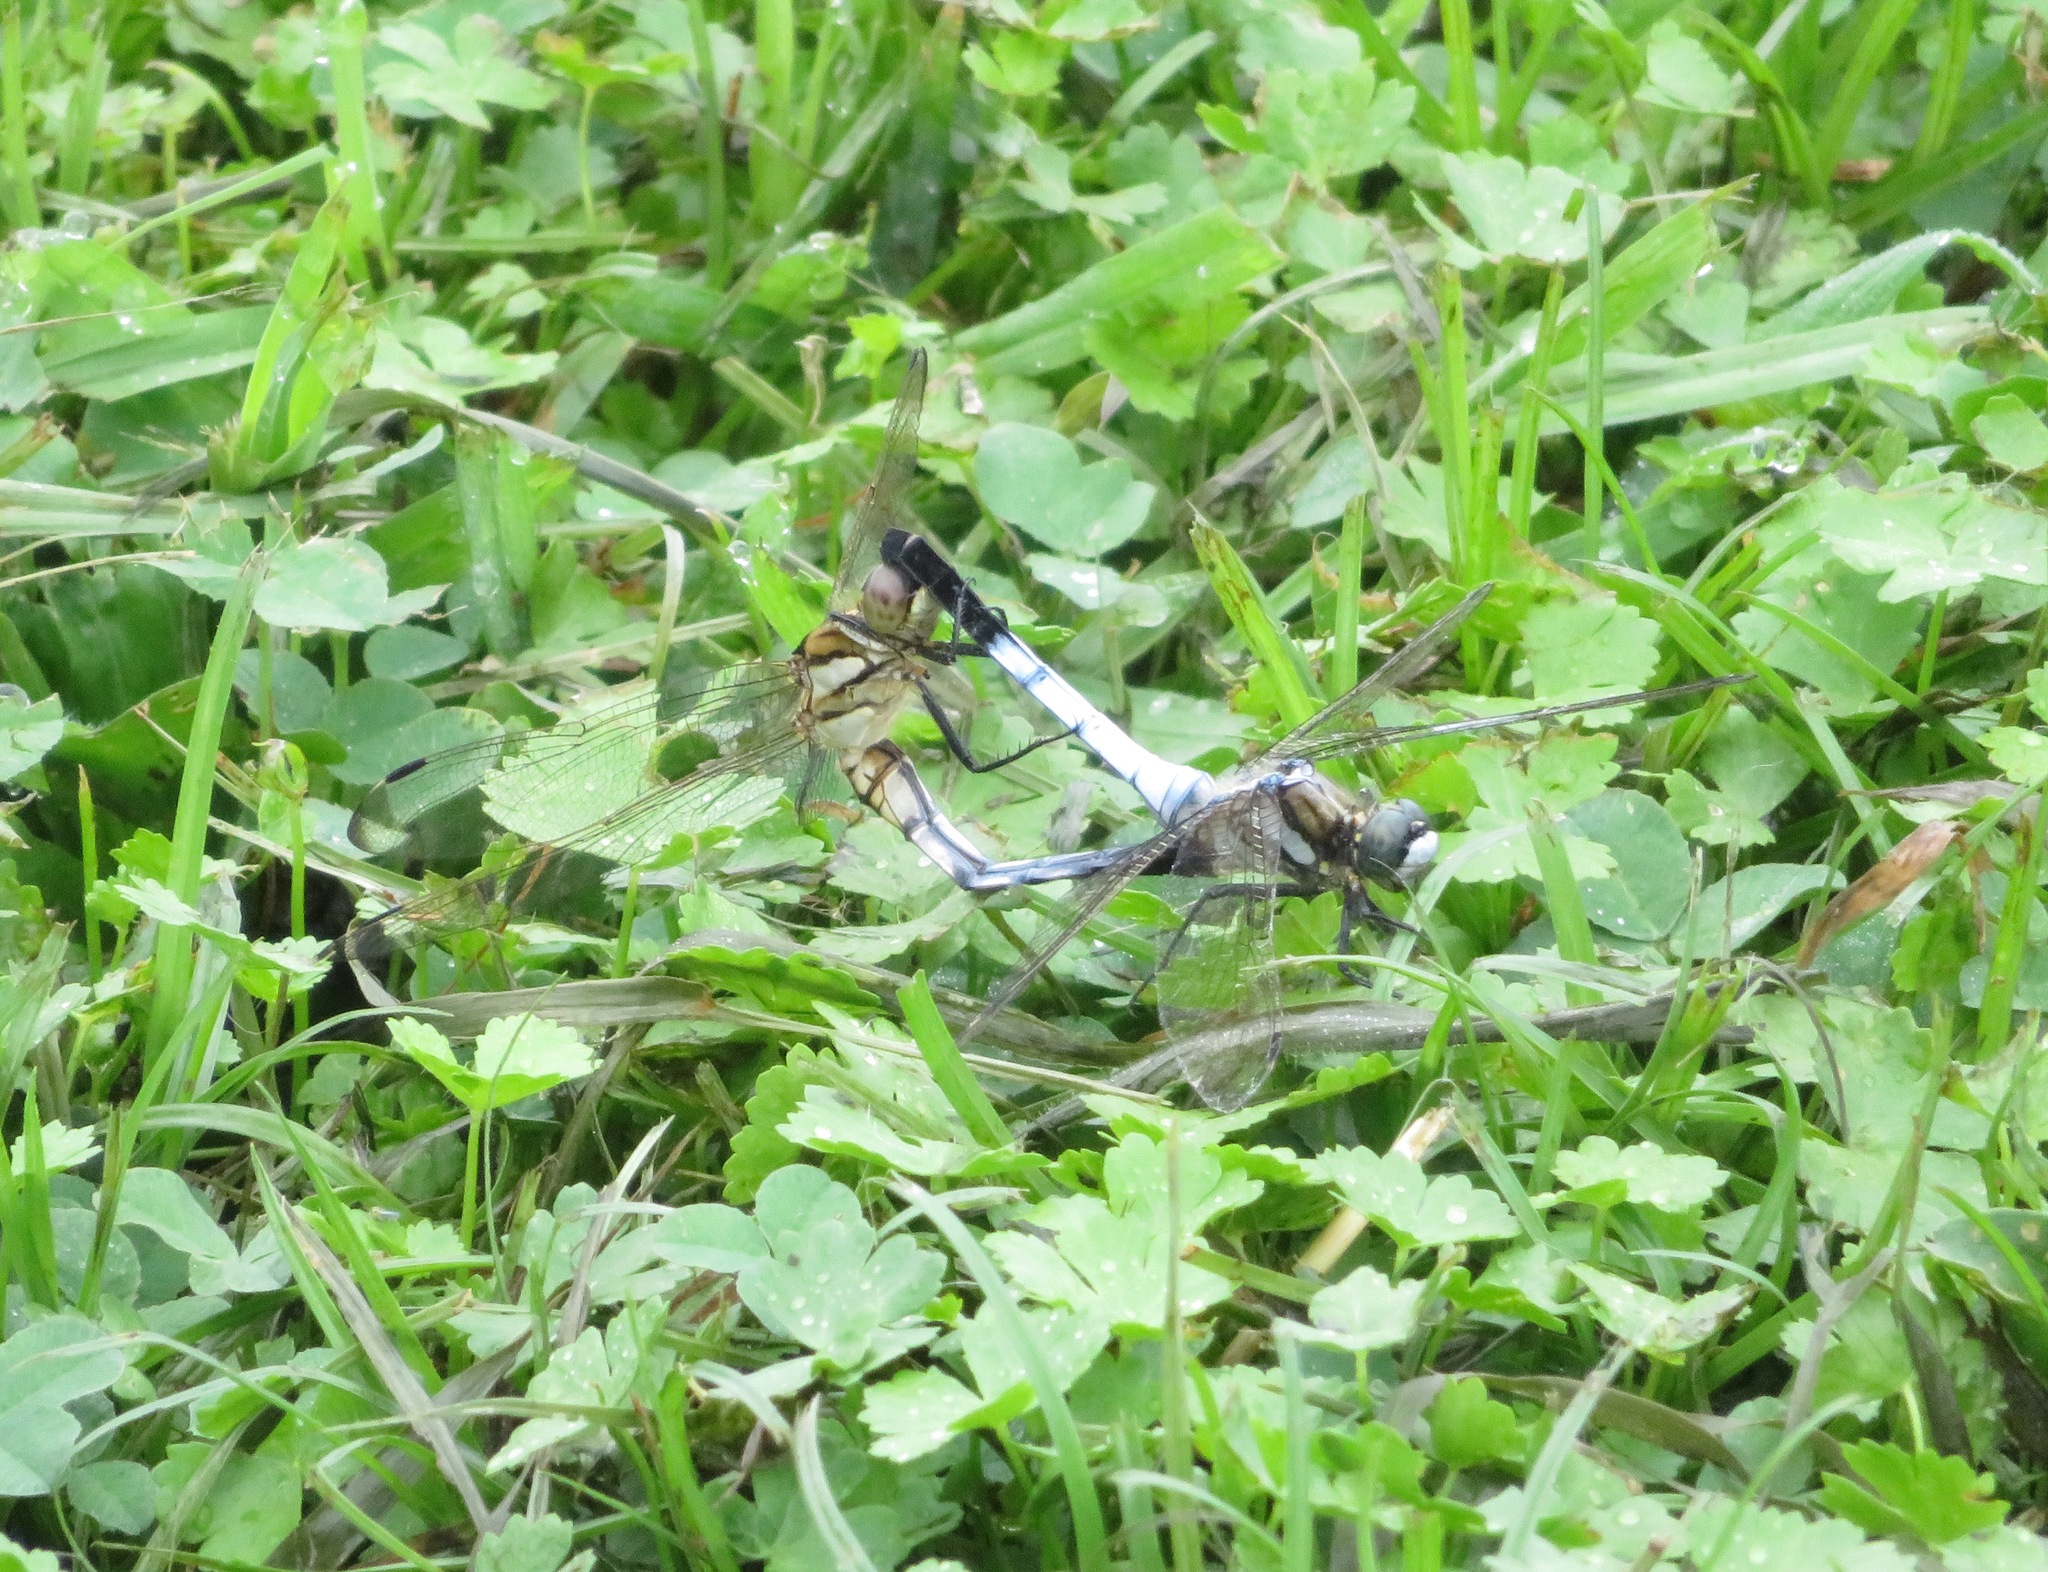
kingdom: Animalia
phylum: Arthropoda
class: Insecta
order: Odonata
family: Libellulidae
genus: Orthetrum
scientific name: Orthetrum albistylum
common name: White-tailed skimmer
